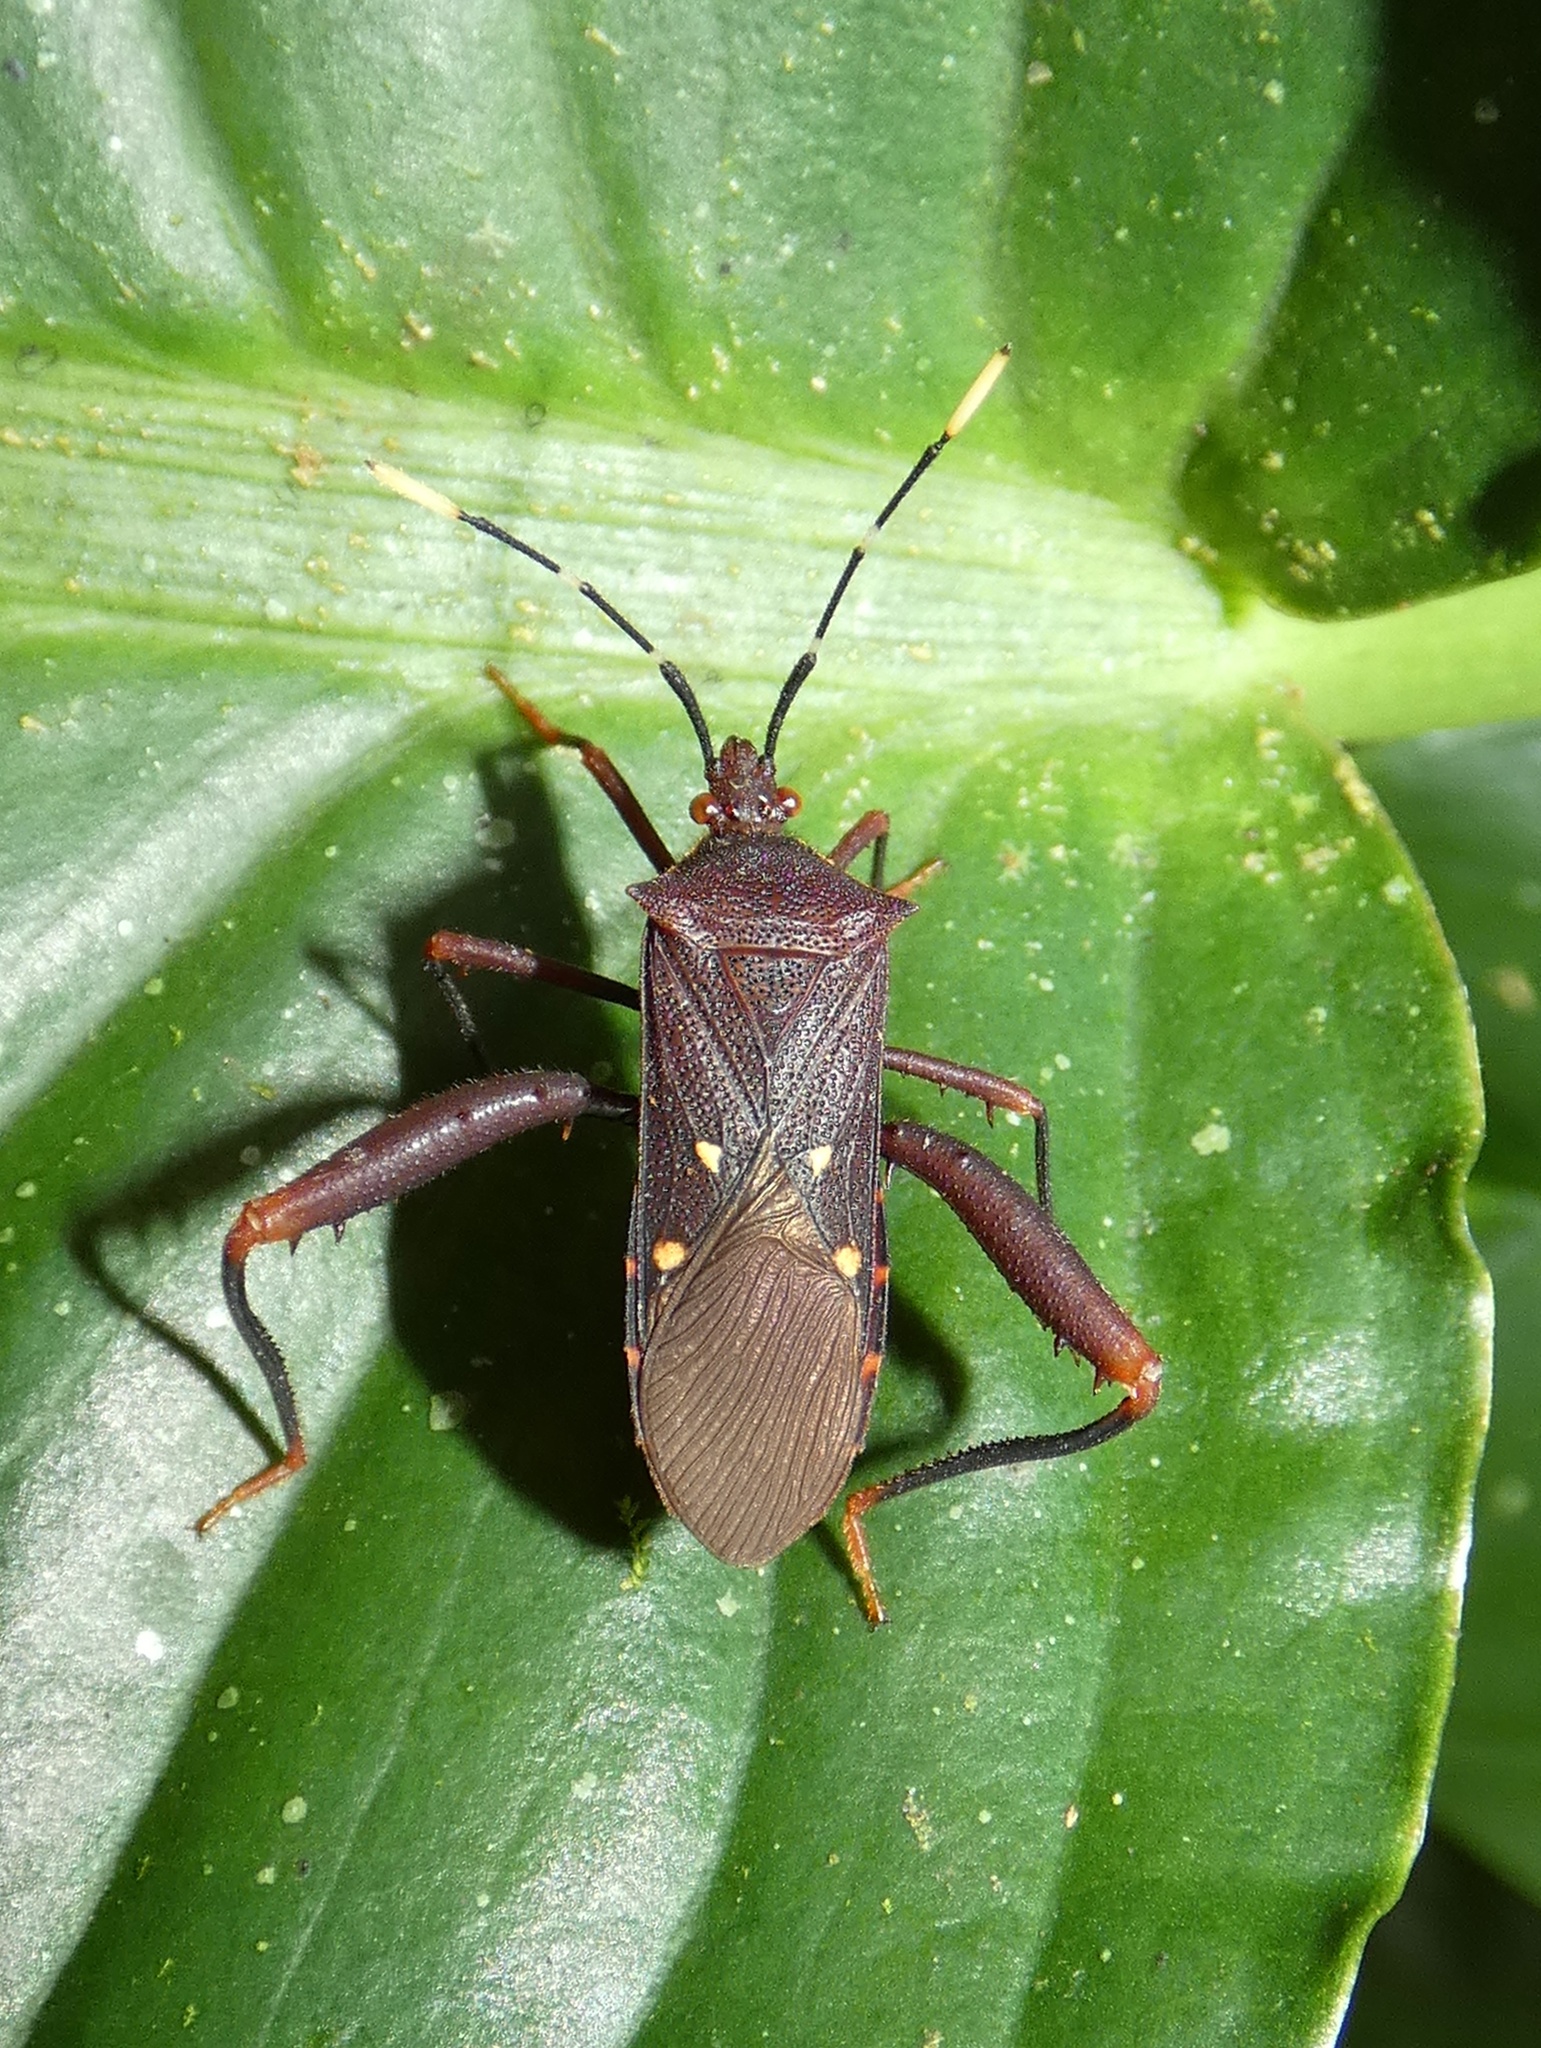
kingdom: Animalia
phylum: Arthropoda
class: Insecta
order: Hemiptera
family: Coreidae
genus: Leptoscelis
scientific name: Leptoscelis quadrisignatus
